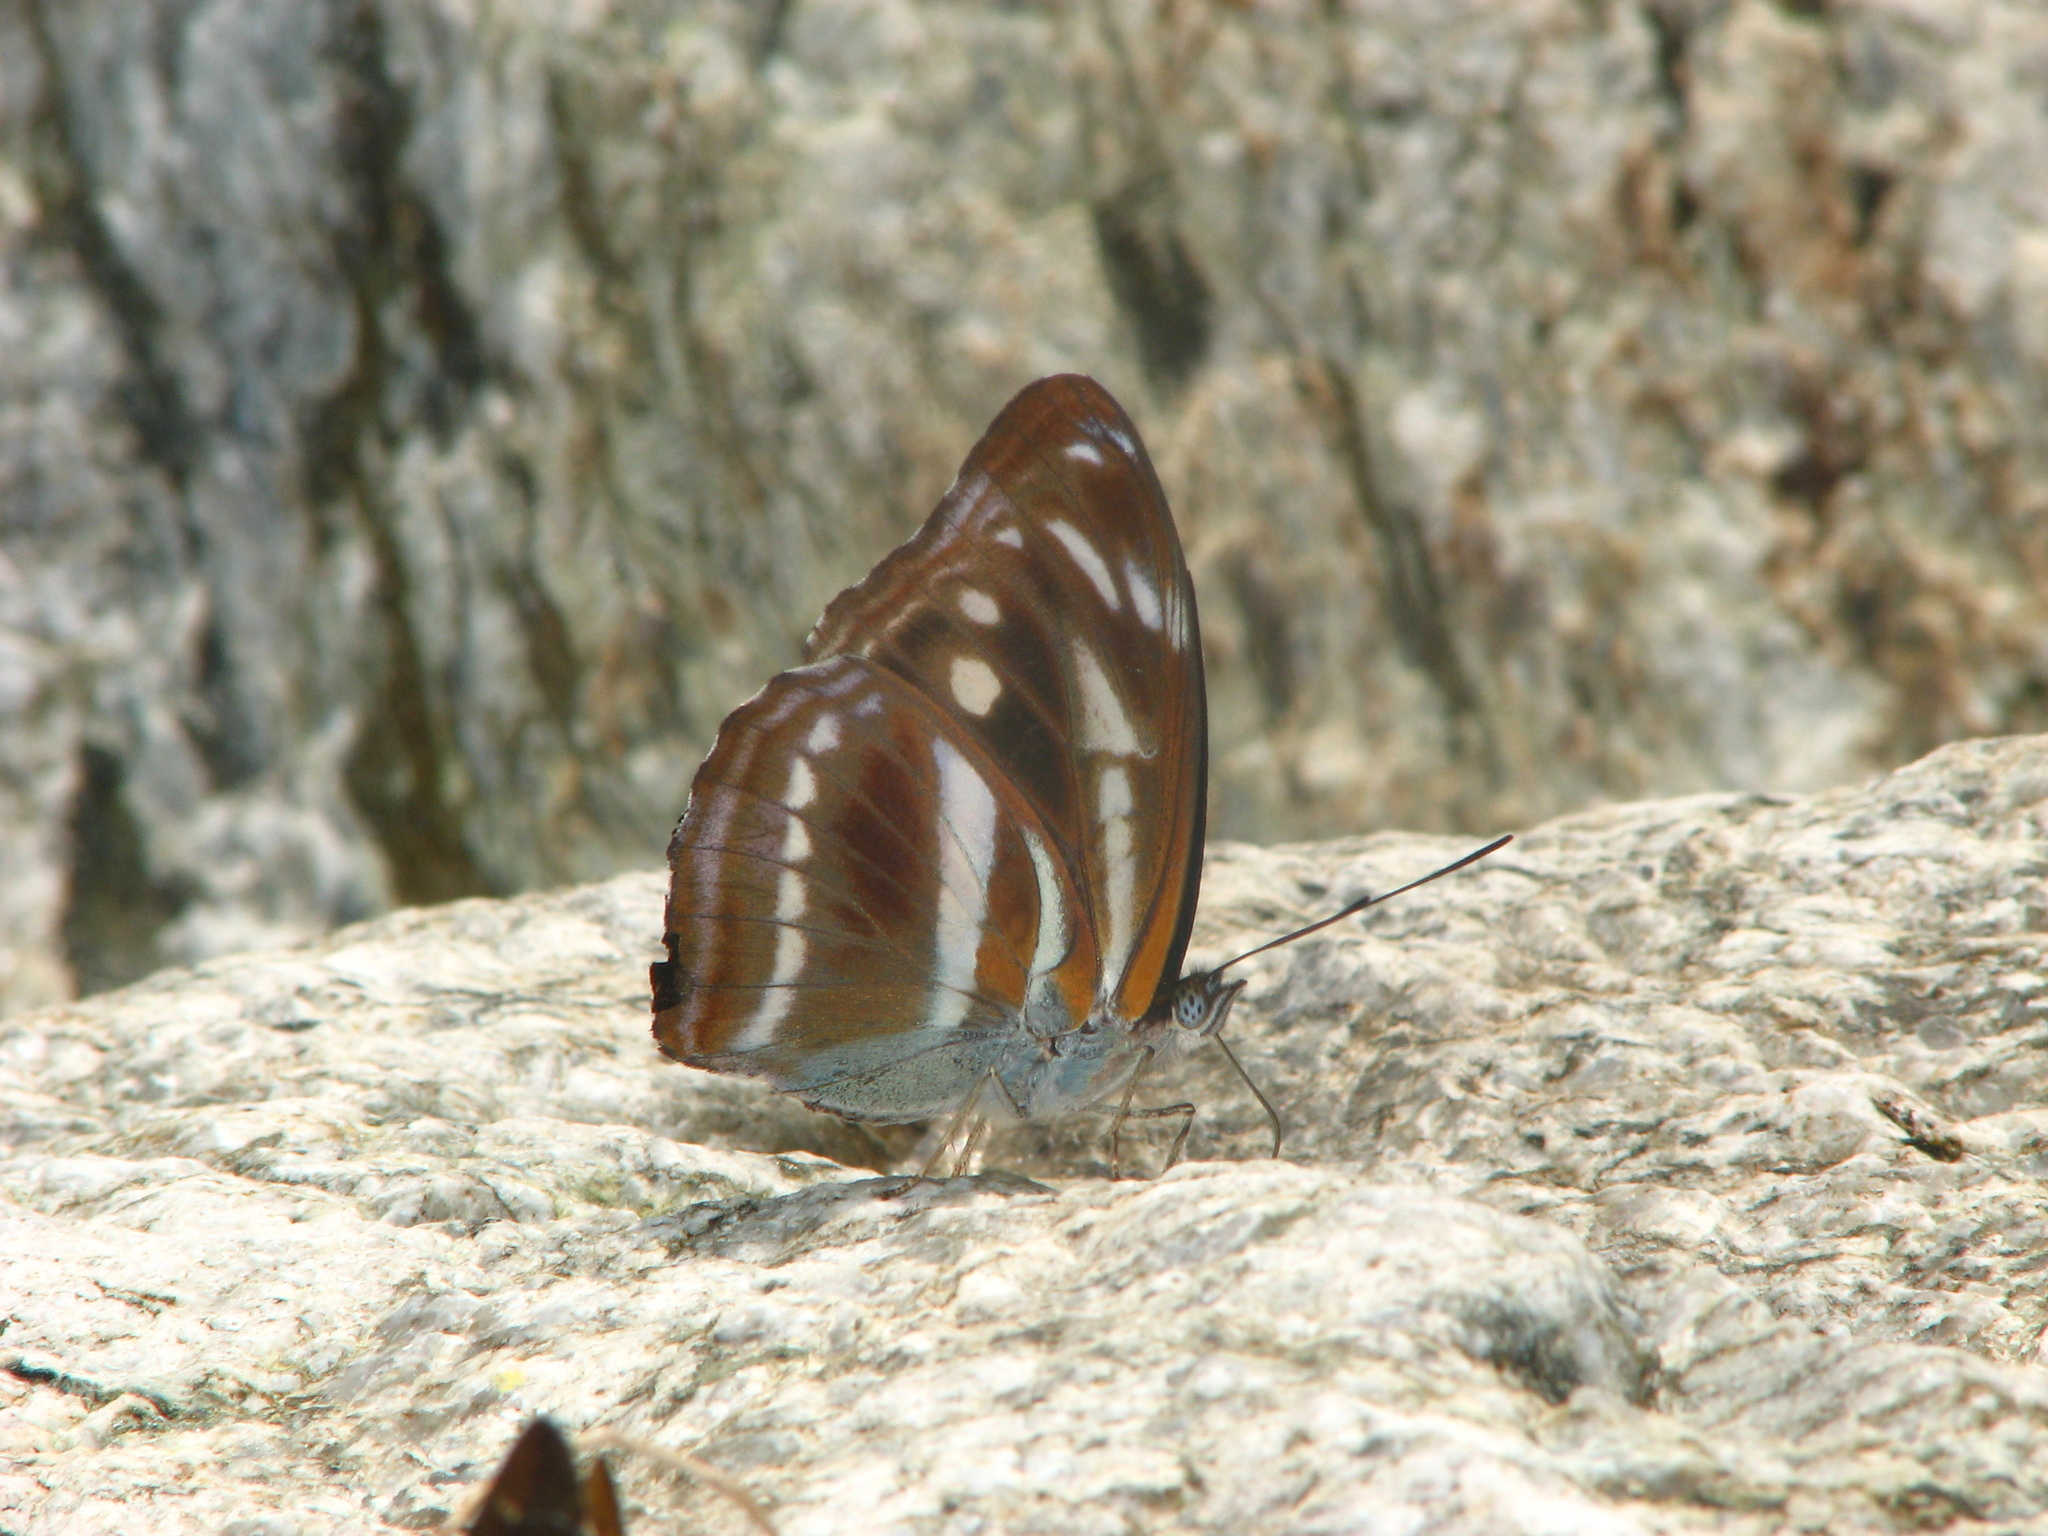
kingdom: Animalia
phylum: Arthropoda
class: Insecta
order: Lepidoptera
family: Nymphalidae
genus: Parathyma
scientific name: Parathyma opalina
